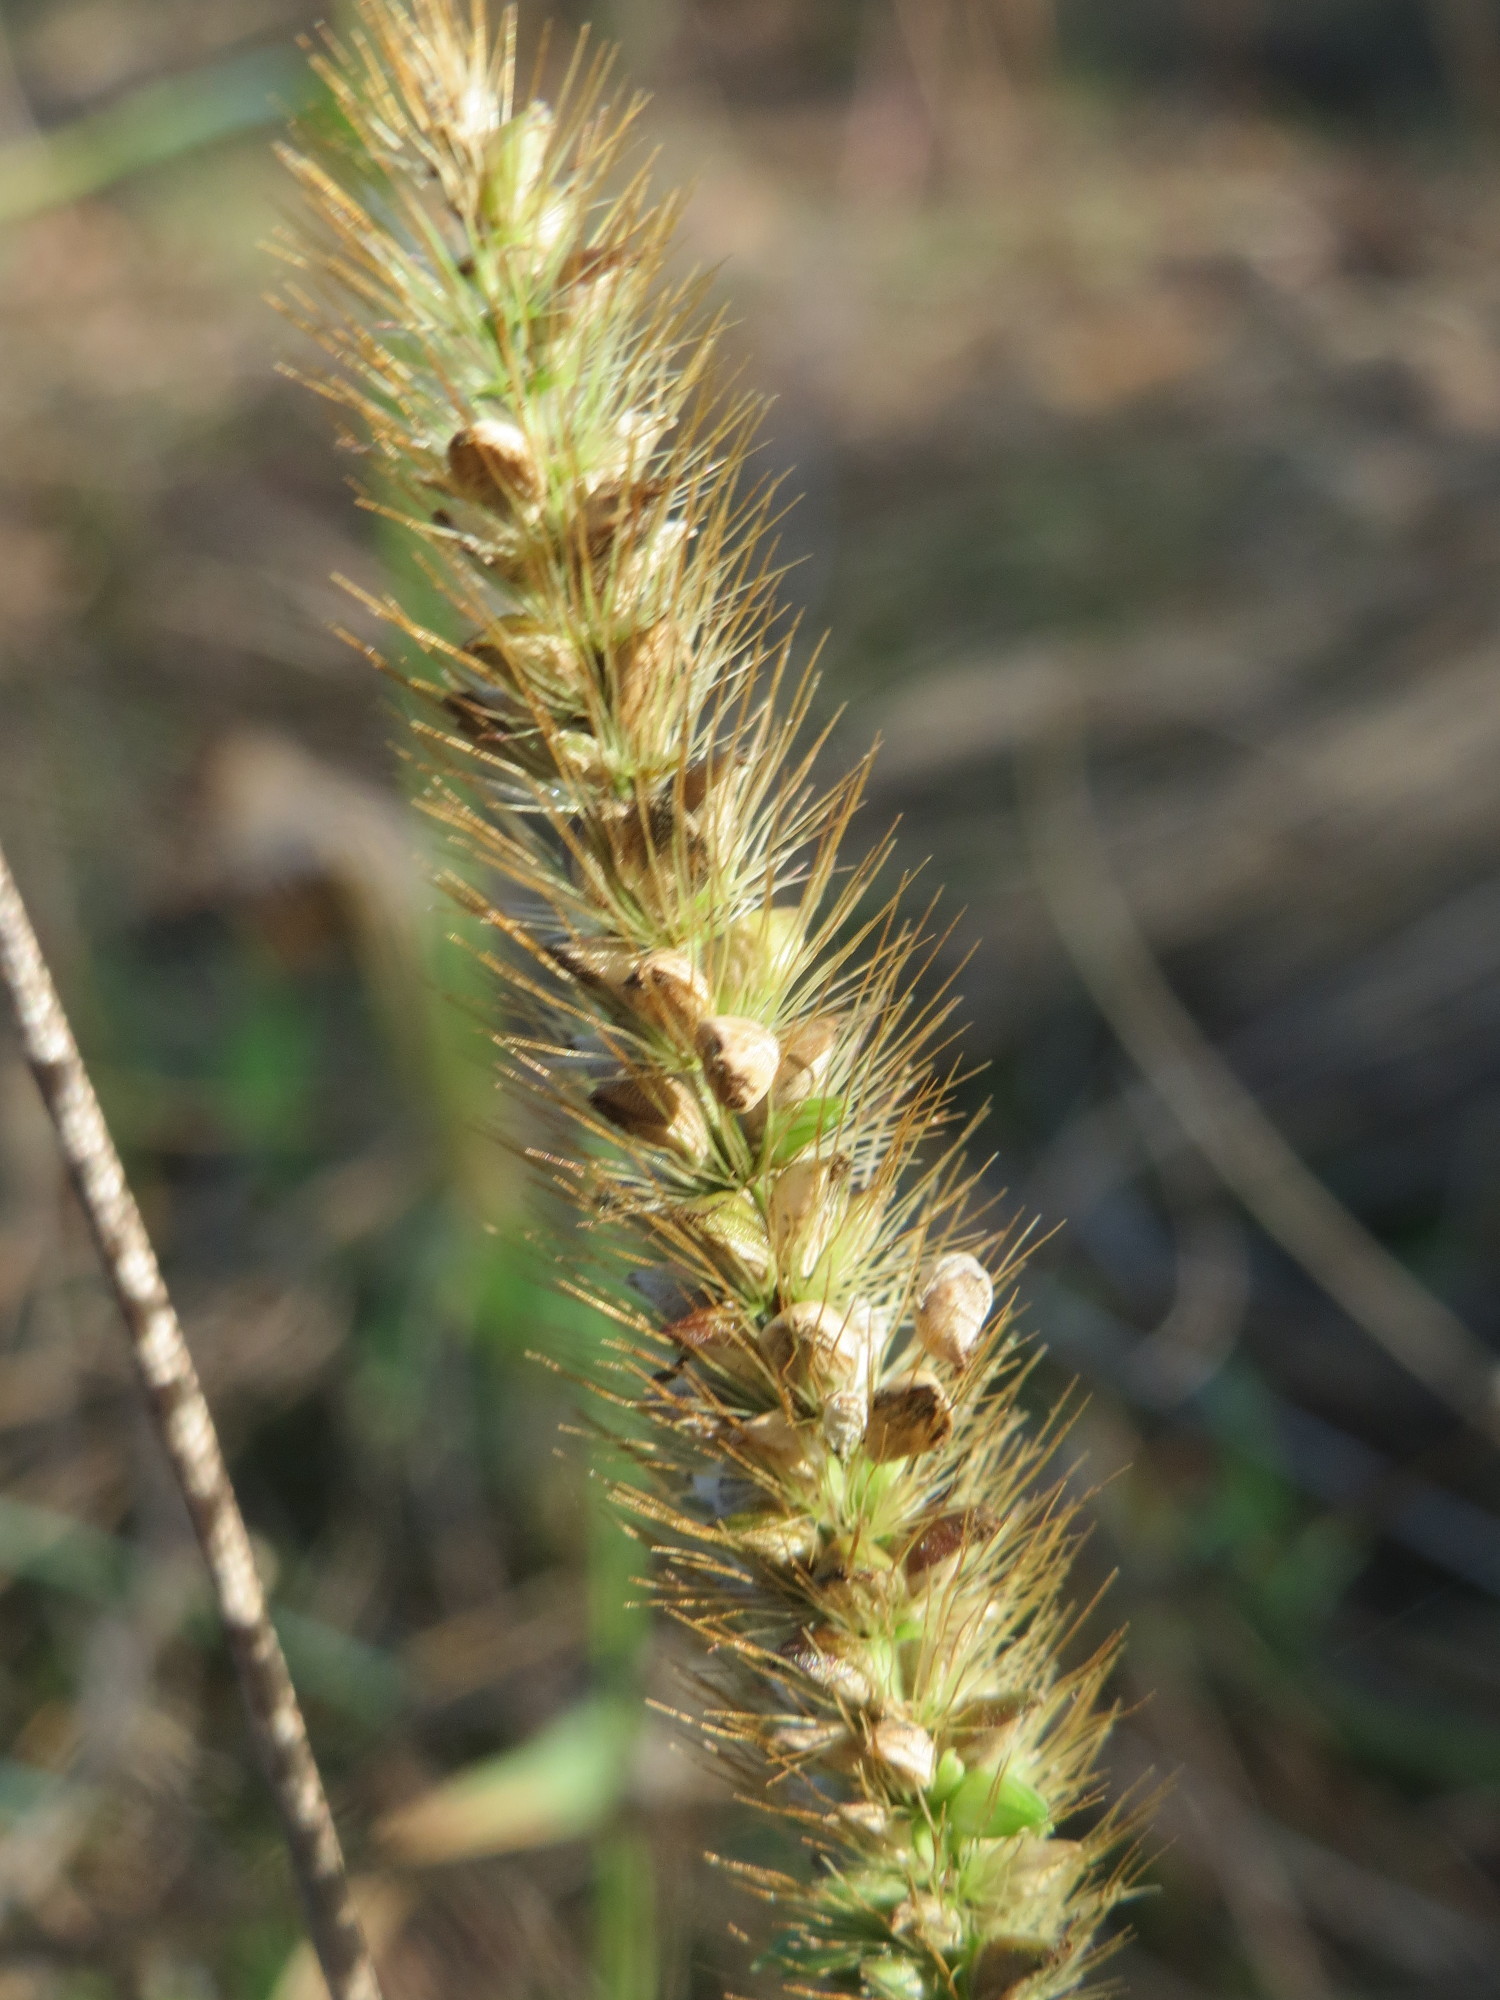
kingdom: Plantae
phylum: Tracheophyta
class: Liliopsida
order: Poales
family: Poaceae
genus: Setaria
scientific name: Setaria pumila
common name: Yellow bristle-grass
